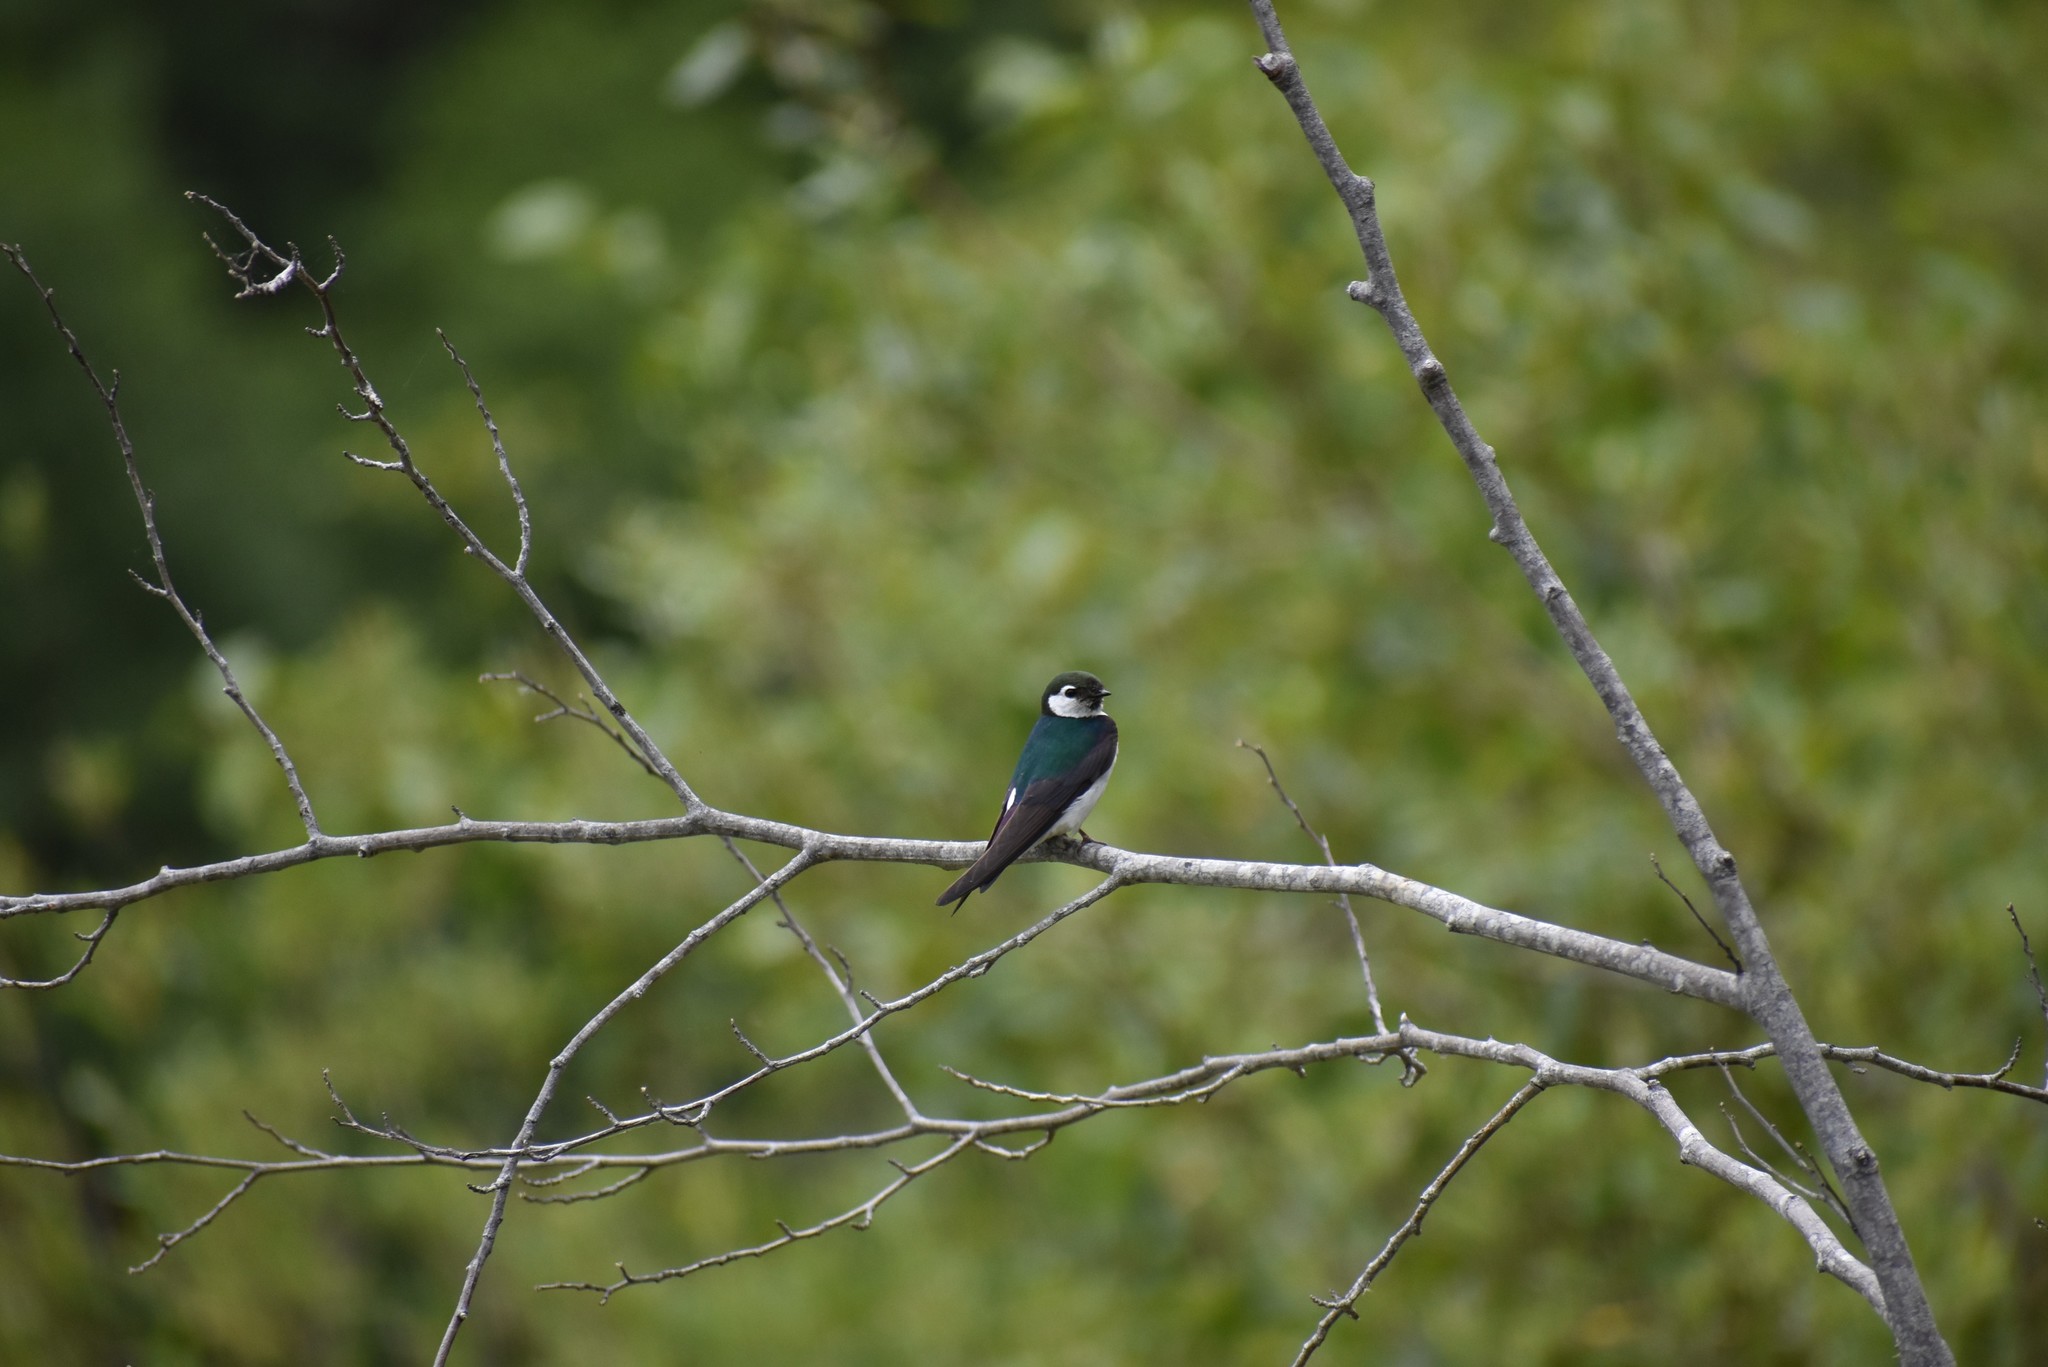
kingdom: Animalia
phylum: Chordata
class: Aves
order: Passeriformes
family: Hirundinidae
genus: Tachycineta
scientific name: Tachycineta thalassina
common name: Violet-green swallow
